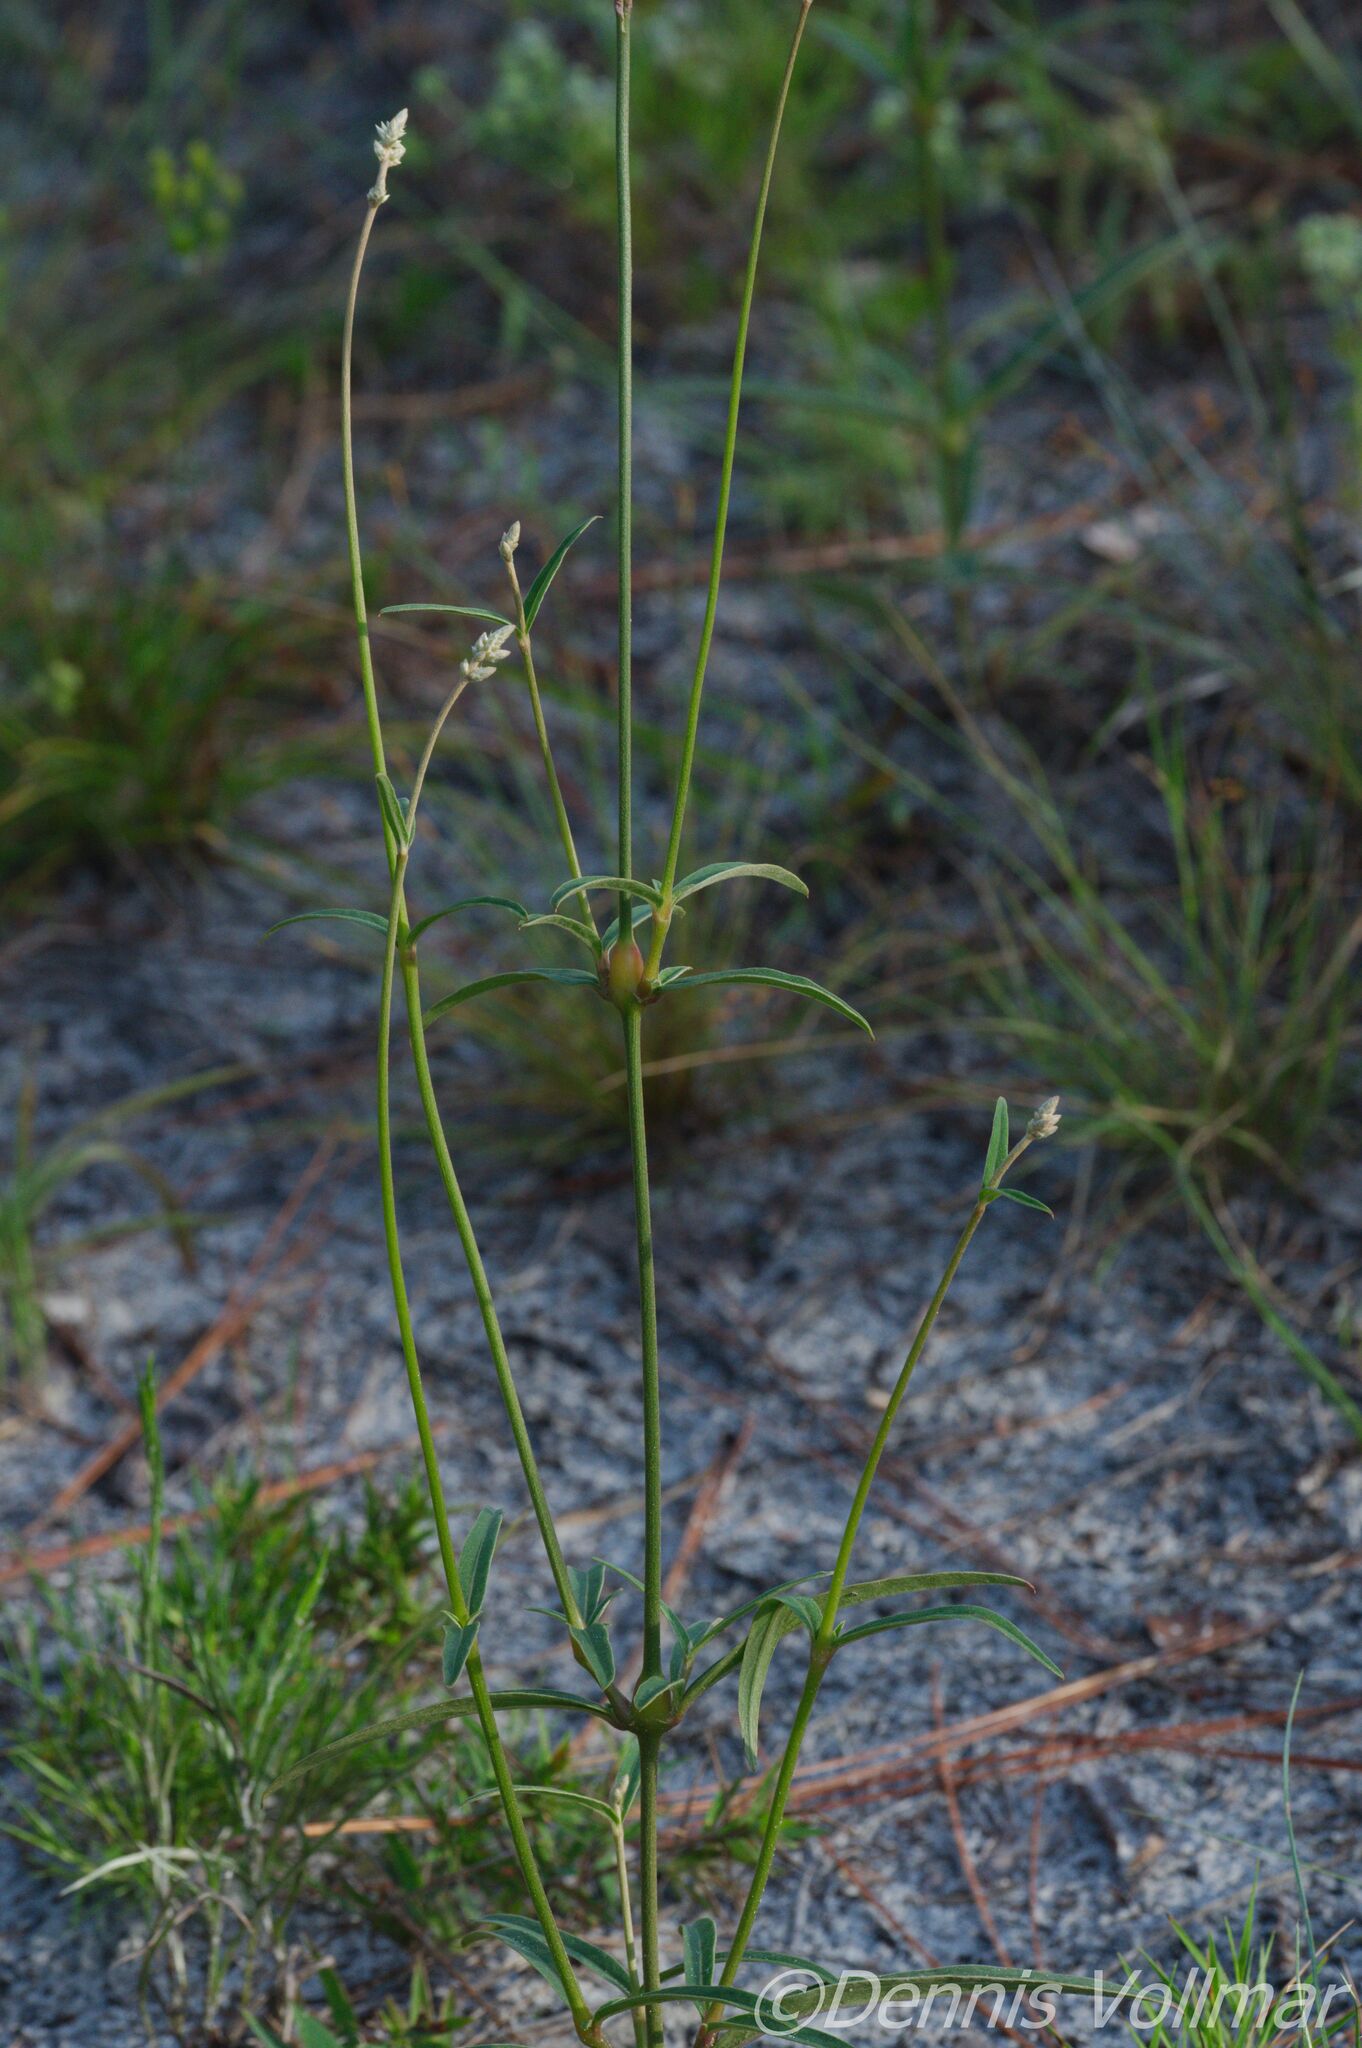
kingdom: Plantae
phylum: Tracheophyta
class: Magnoliopsida
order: Caryophyllales
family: Amaranthaceae
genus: Froelichia
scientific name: Froelichia floridana
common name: Florida snake-cotton
